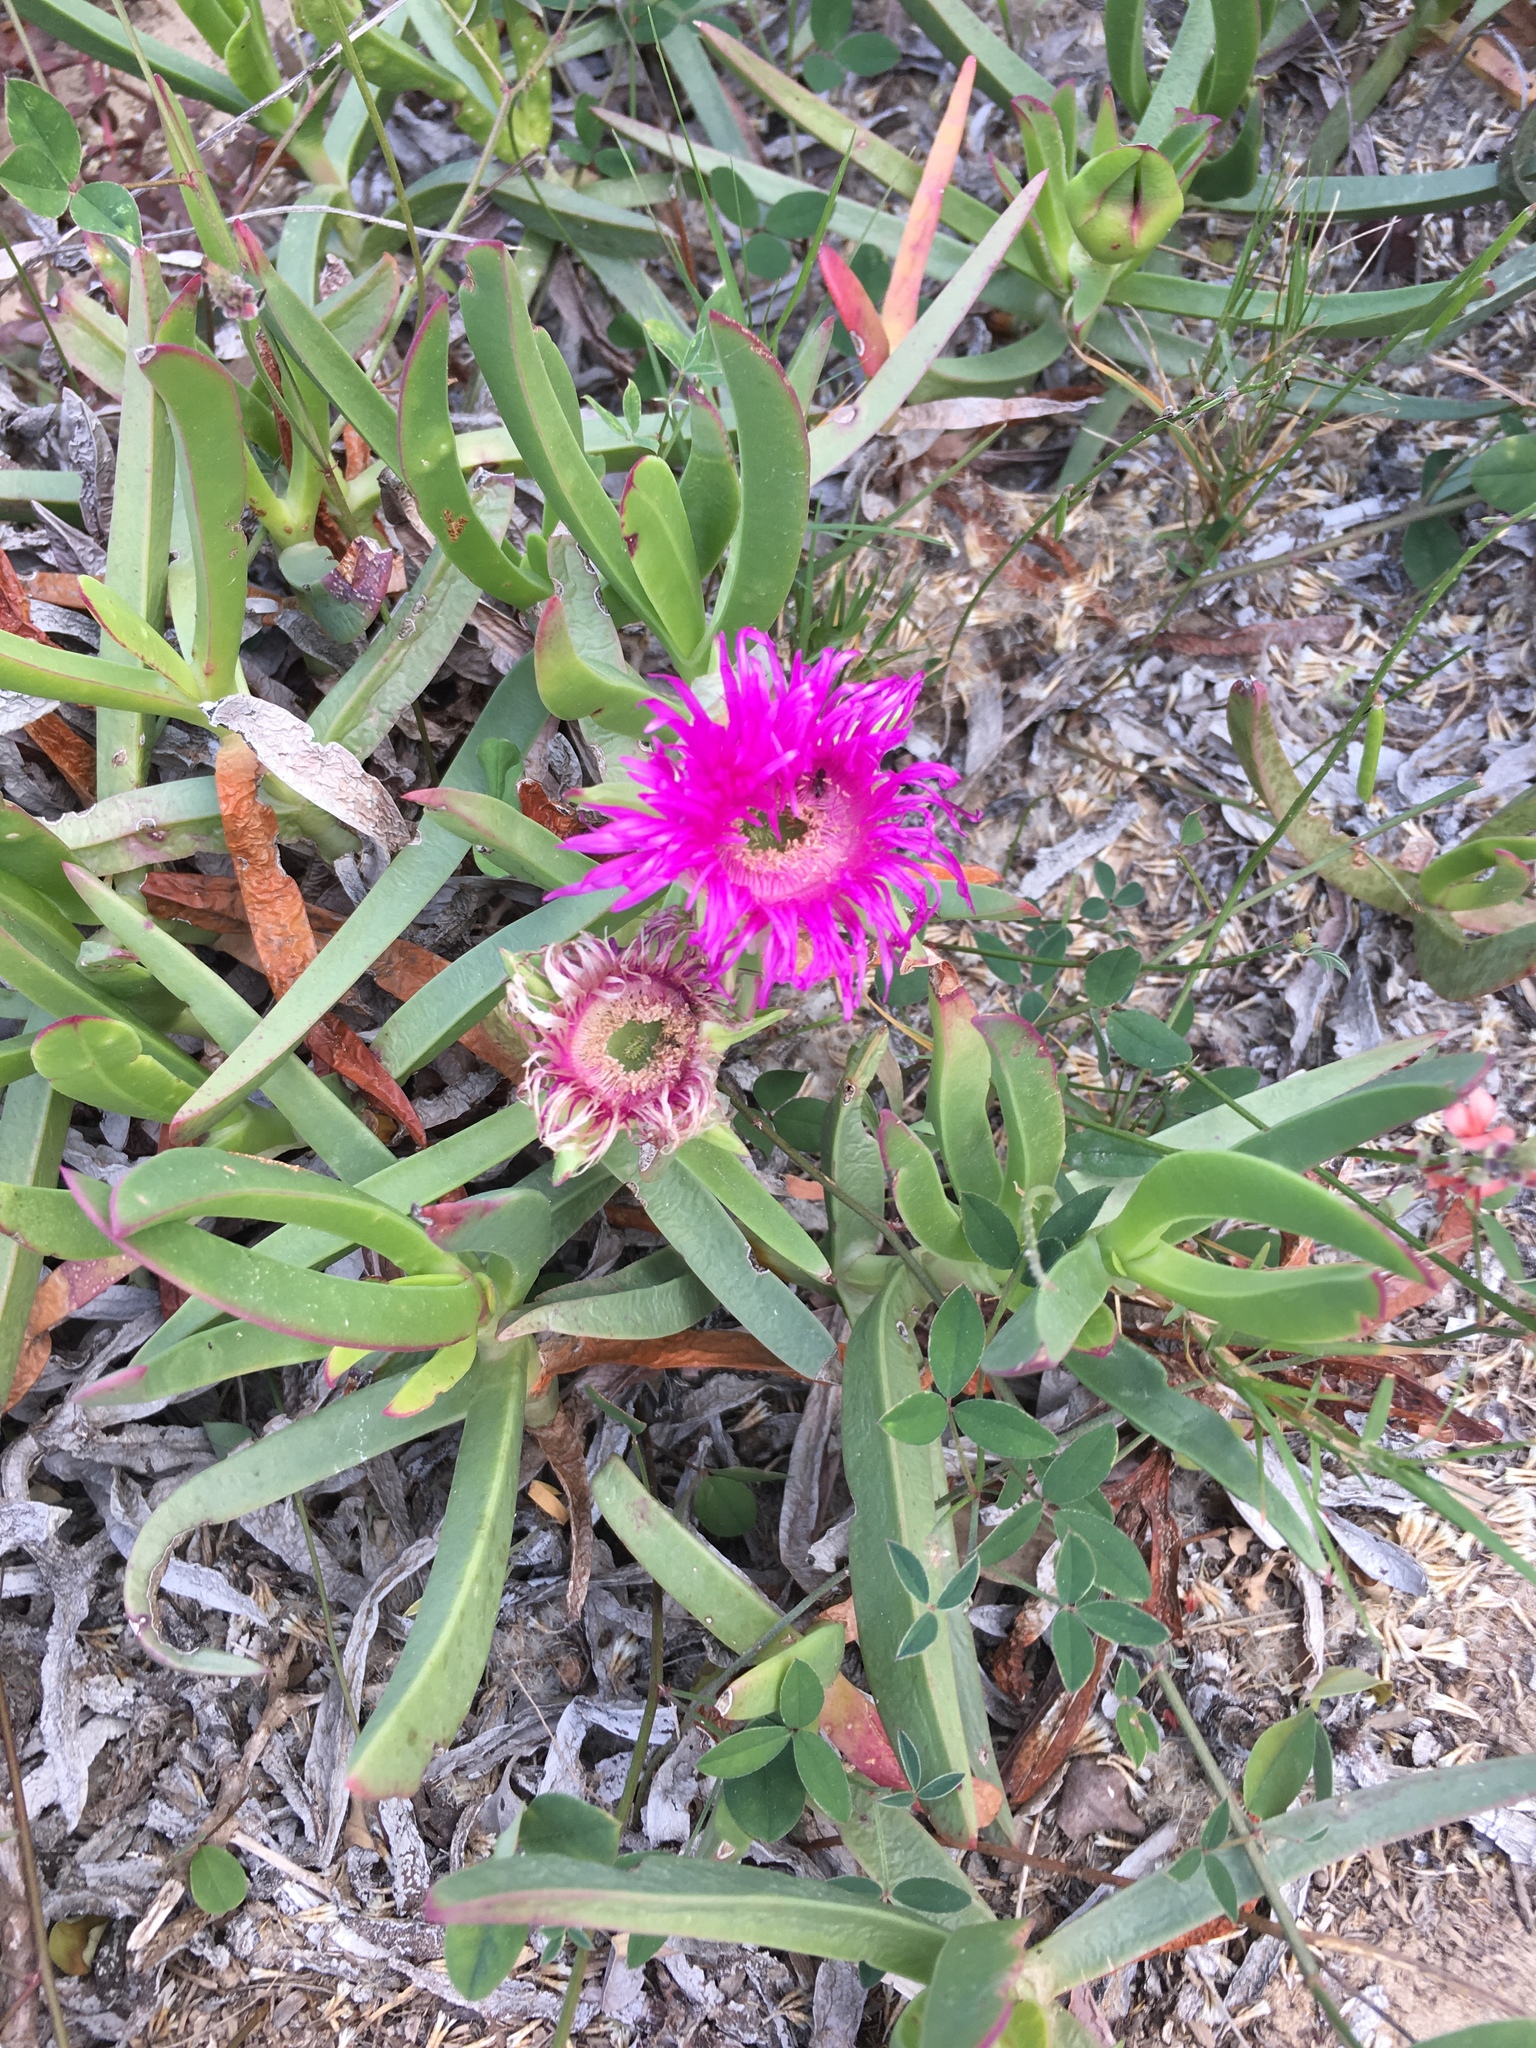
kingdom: Plantae
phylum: Tracheophyta
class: Magnoliopsida
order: Caryophyllales
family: Aizoaceae
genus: Carpobrotus
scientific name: Carpobrotus deliciosus
